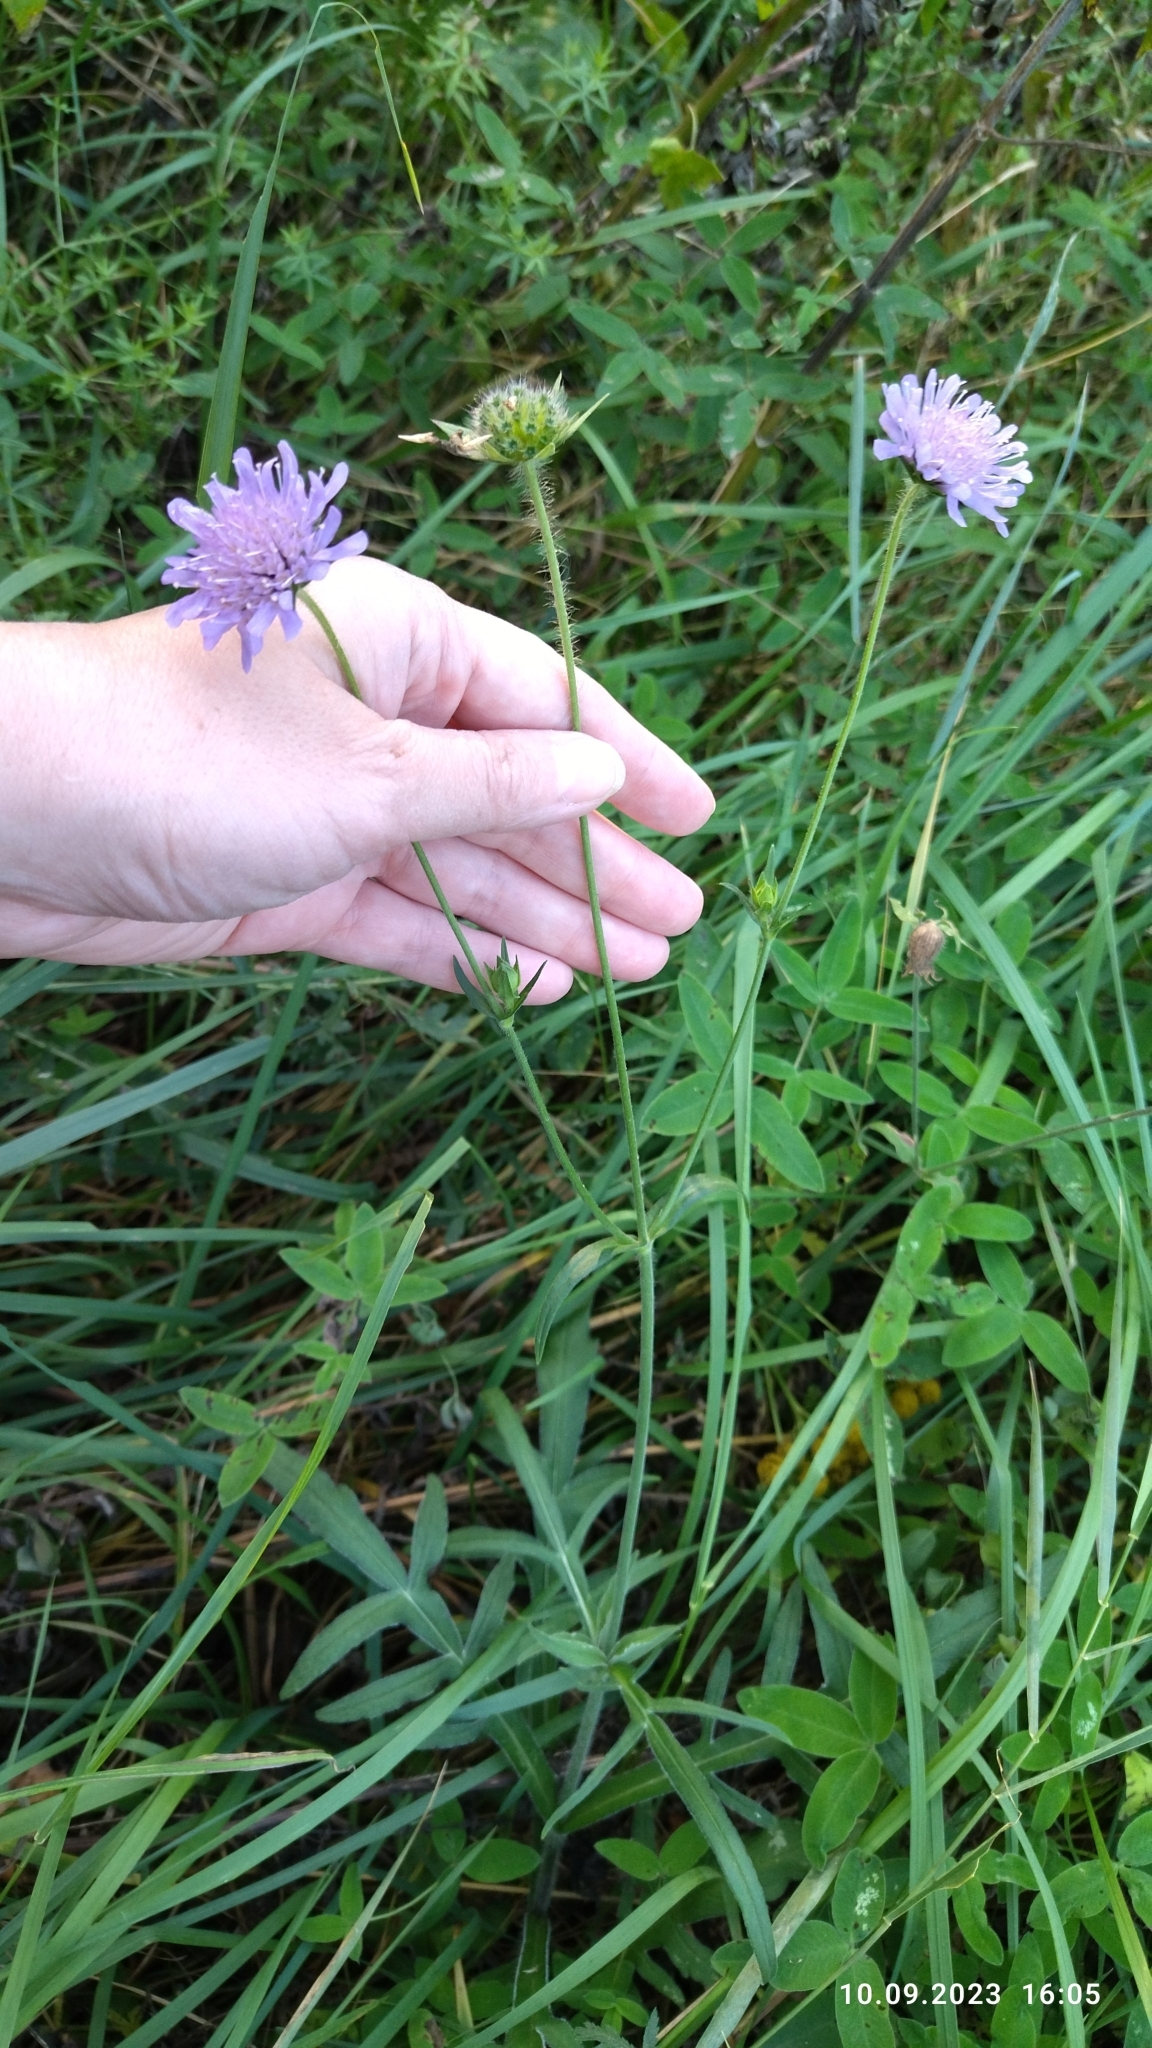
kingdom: Plantae
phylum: Tracheophyta
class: Magnoliopsida
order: Dipsacales
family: Caprifoliaceae
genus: Knautia
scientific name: Knautia arvensis
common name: Field scabiosa
